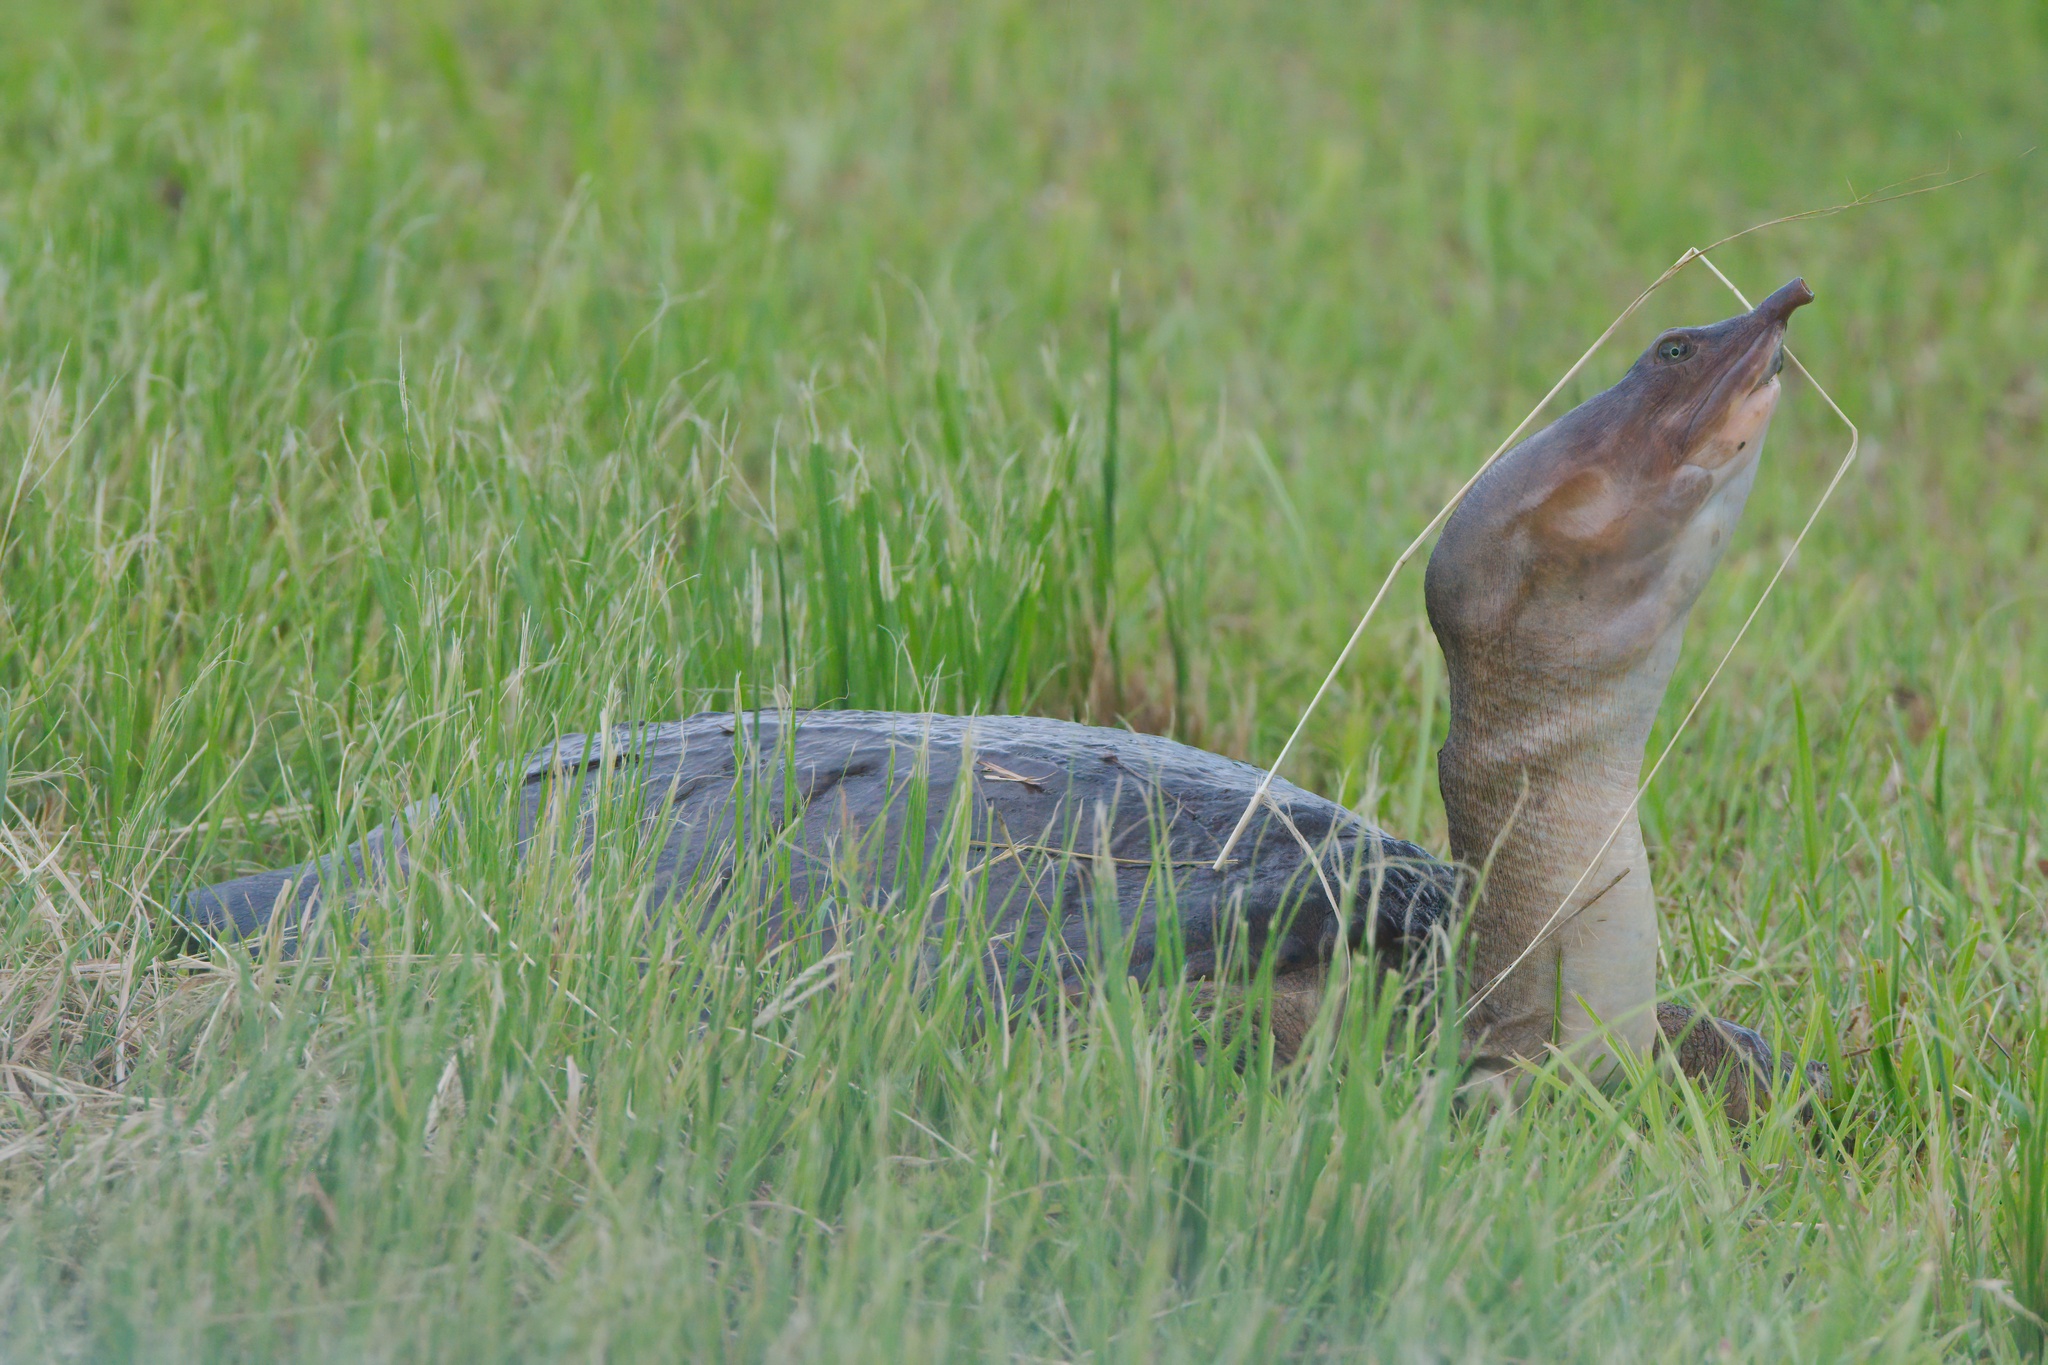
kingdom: Animalia
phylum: Chordata
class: Testudines
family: Trionychidae
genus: Apalone
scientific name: Apalone ferox
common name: Florida softshell turtle
